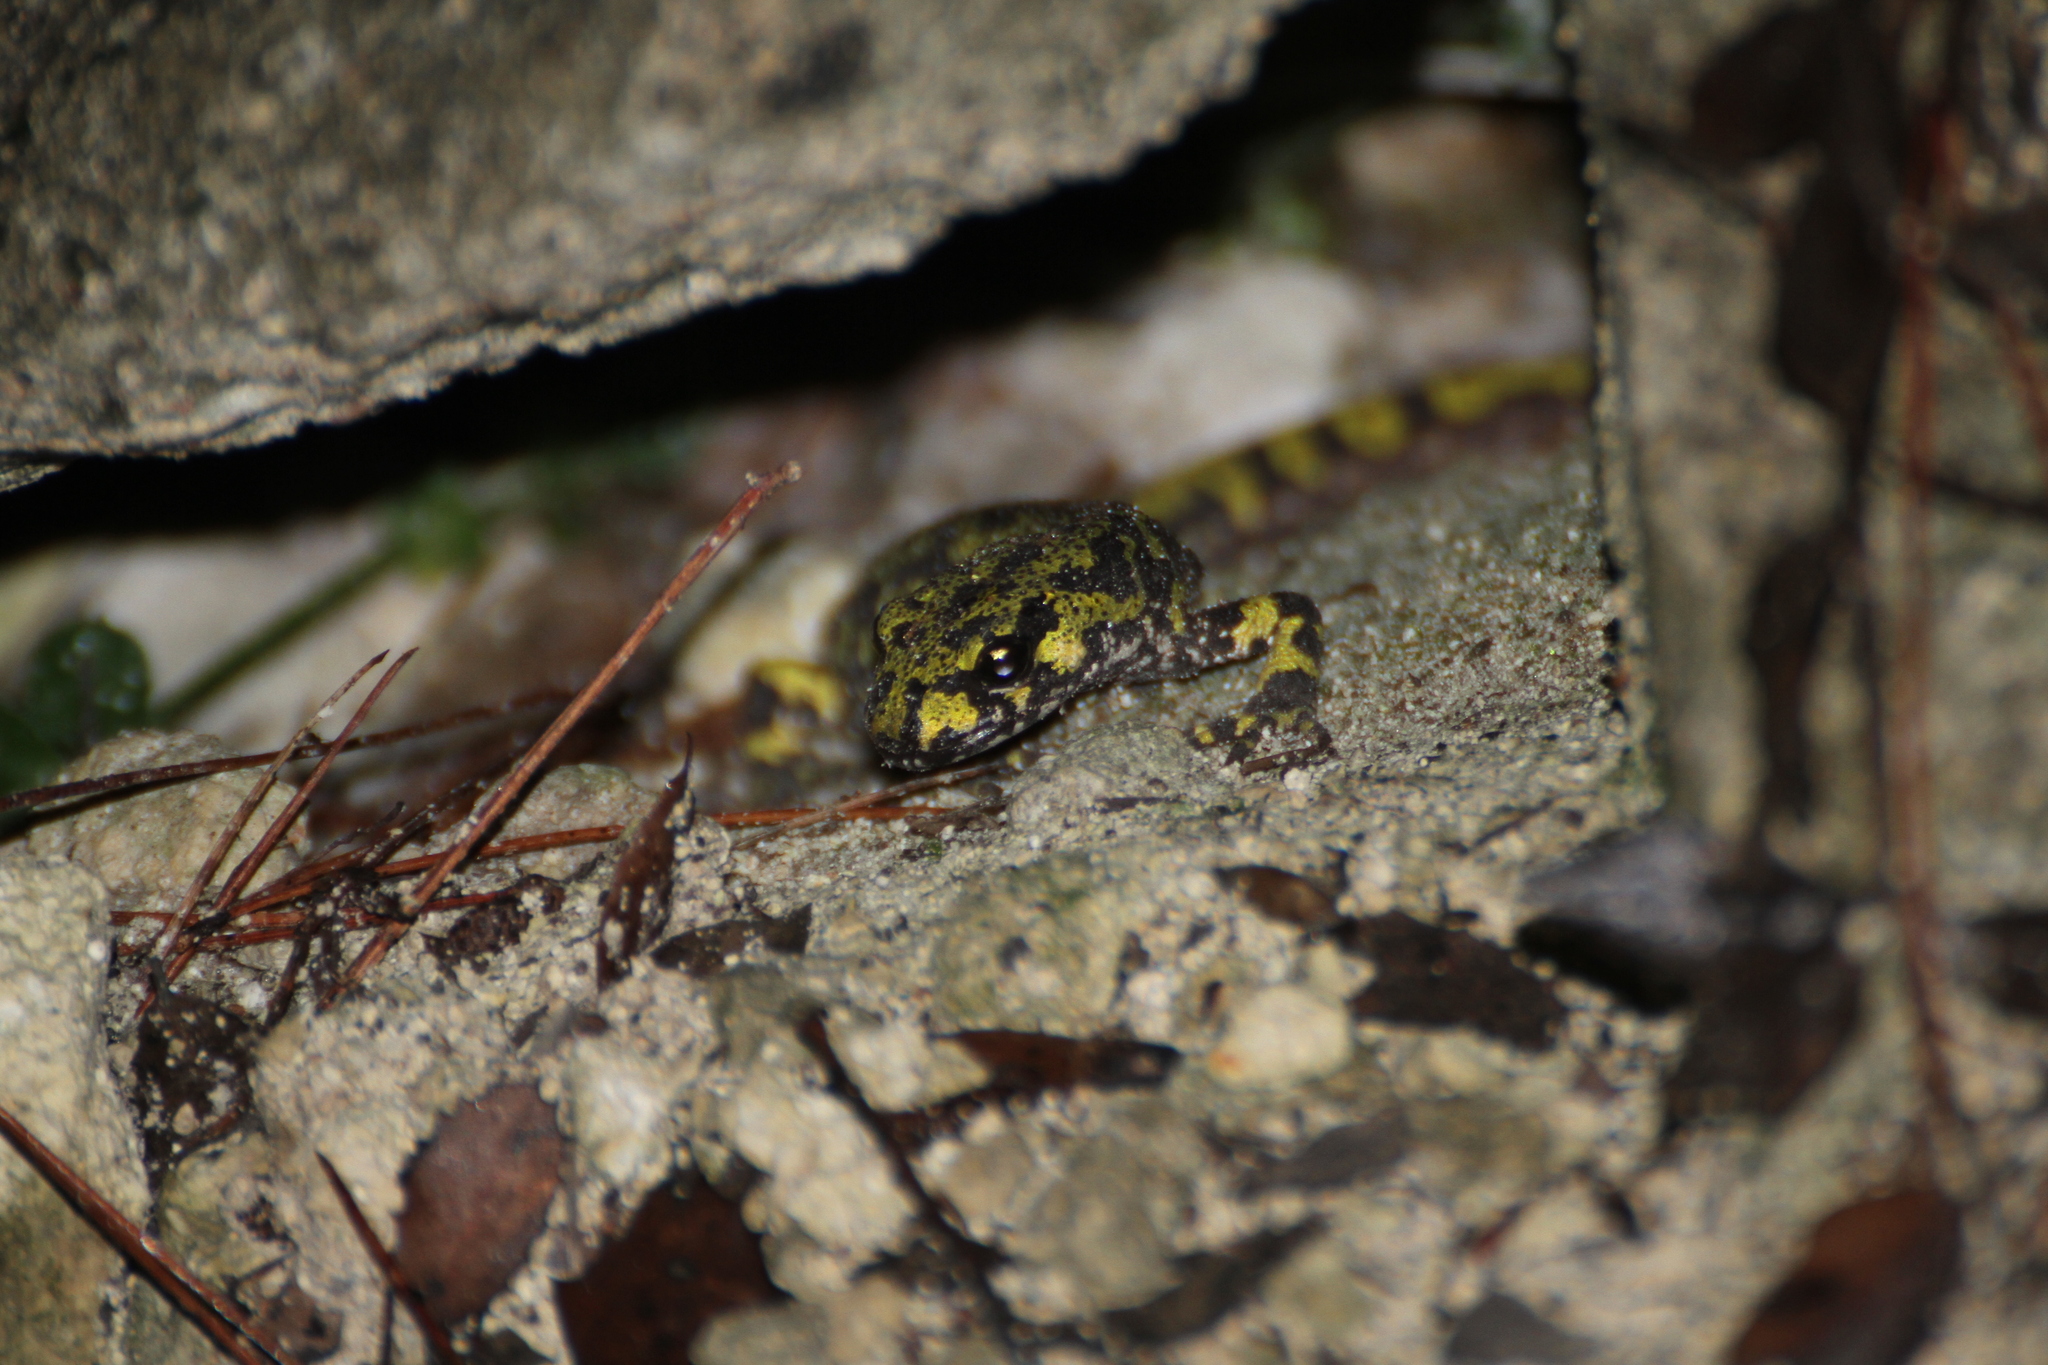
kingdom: Animalia
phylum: Chordata
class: Amphibia
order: Caudata
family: Salamandridae
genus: Triturus
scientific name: Triturus marmoratus
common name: Marbled newt
